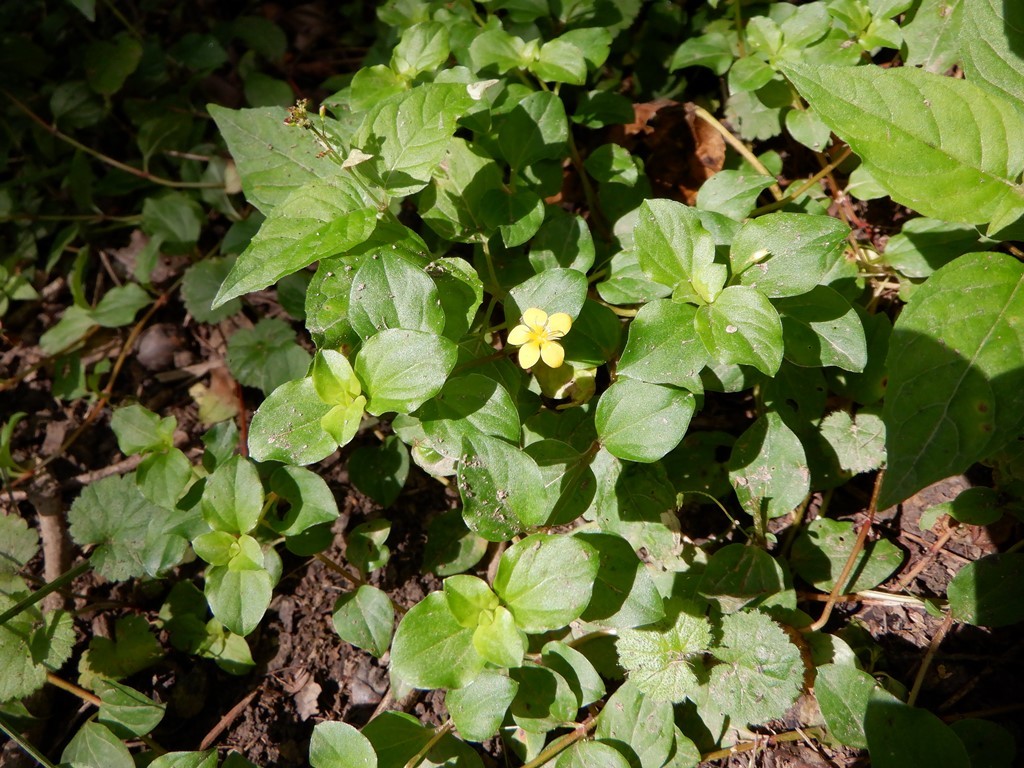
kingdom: Plantae
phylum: Tracheophyta
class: Magnoliopsida
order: Ericales
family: Primulaceae
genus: Lysimachia
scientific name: Lysimachia nemorum
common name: Yellow pimpernel
